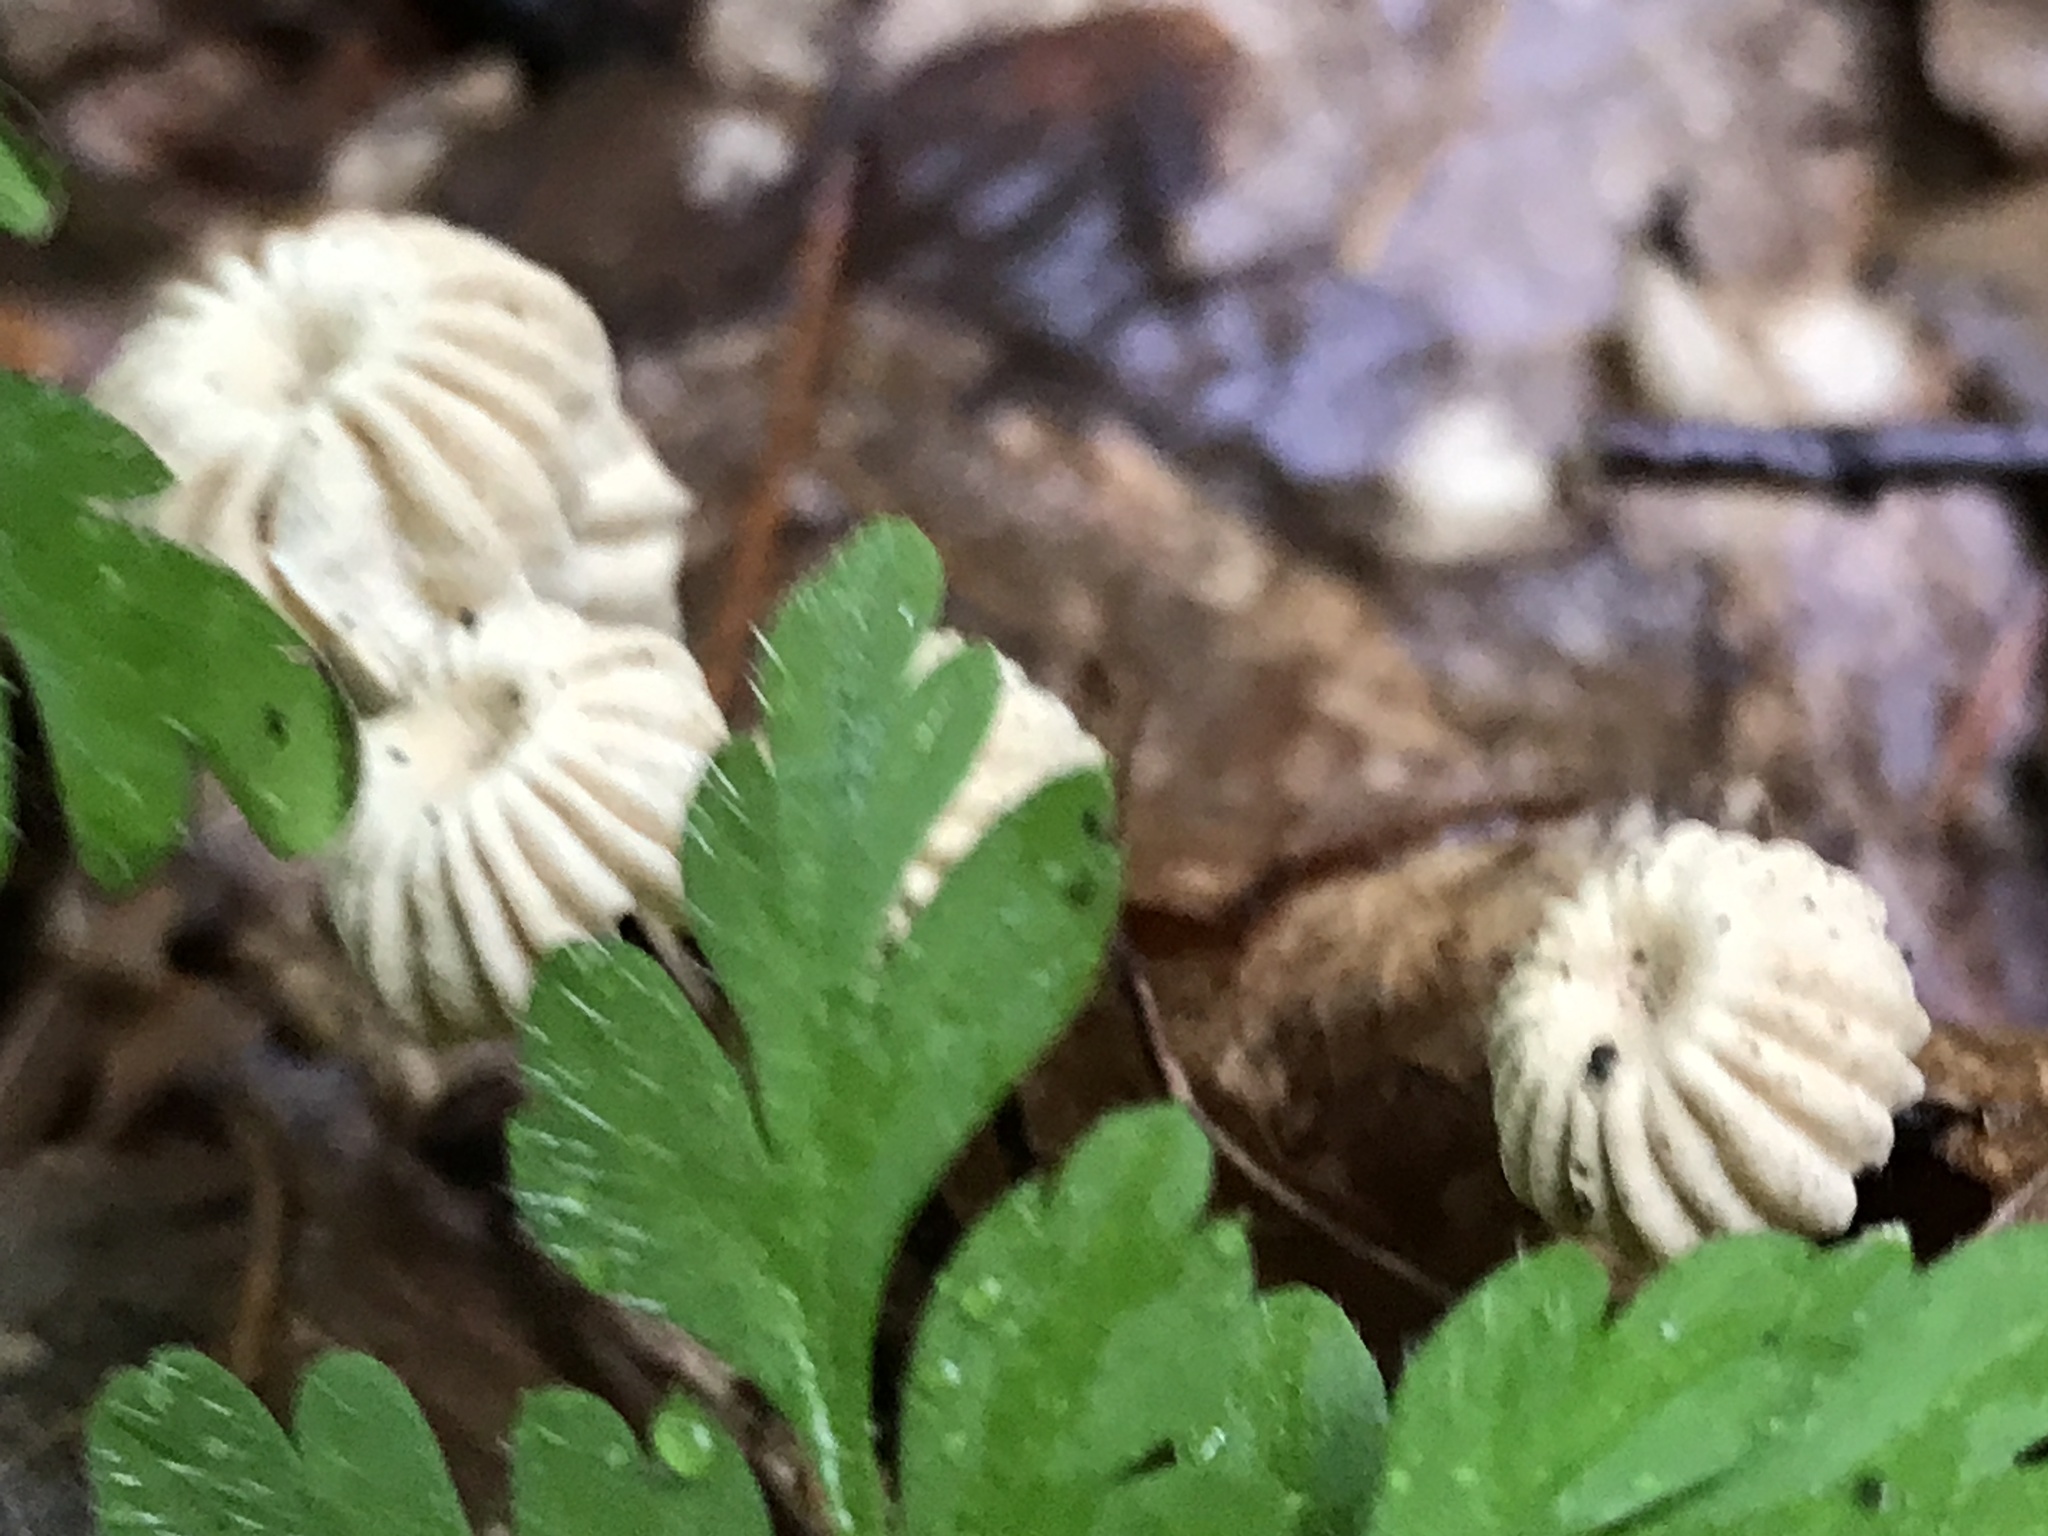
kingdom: Fungi
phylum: Basidiomycota
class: Agaricomycetes
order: Agaricales
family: Marasmiaceae
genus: Marasmius
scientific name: Marasmius rotula
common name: Collared parachute
